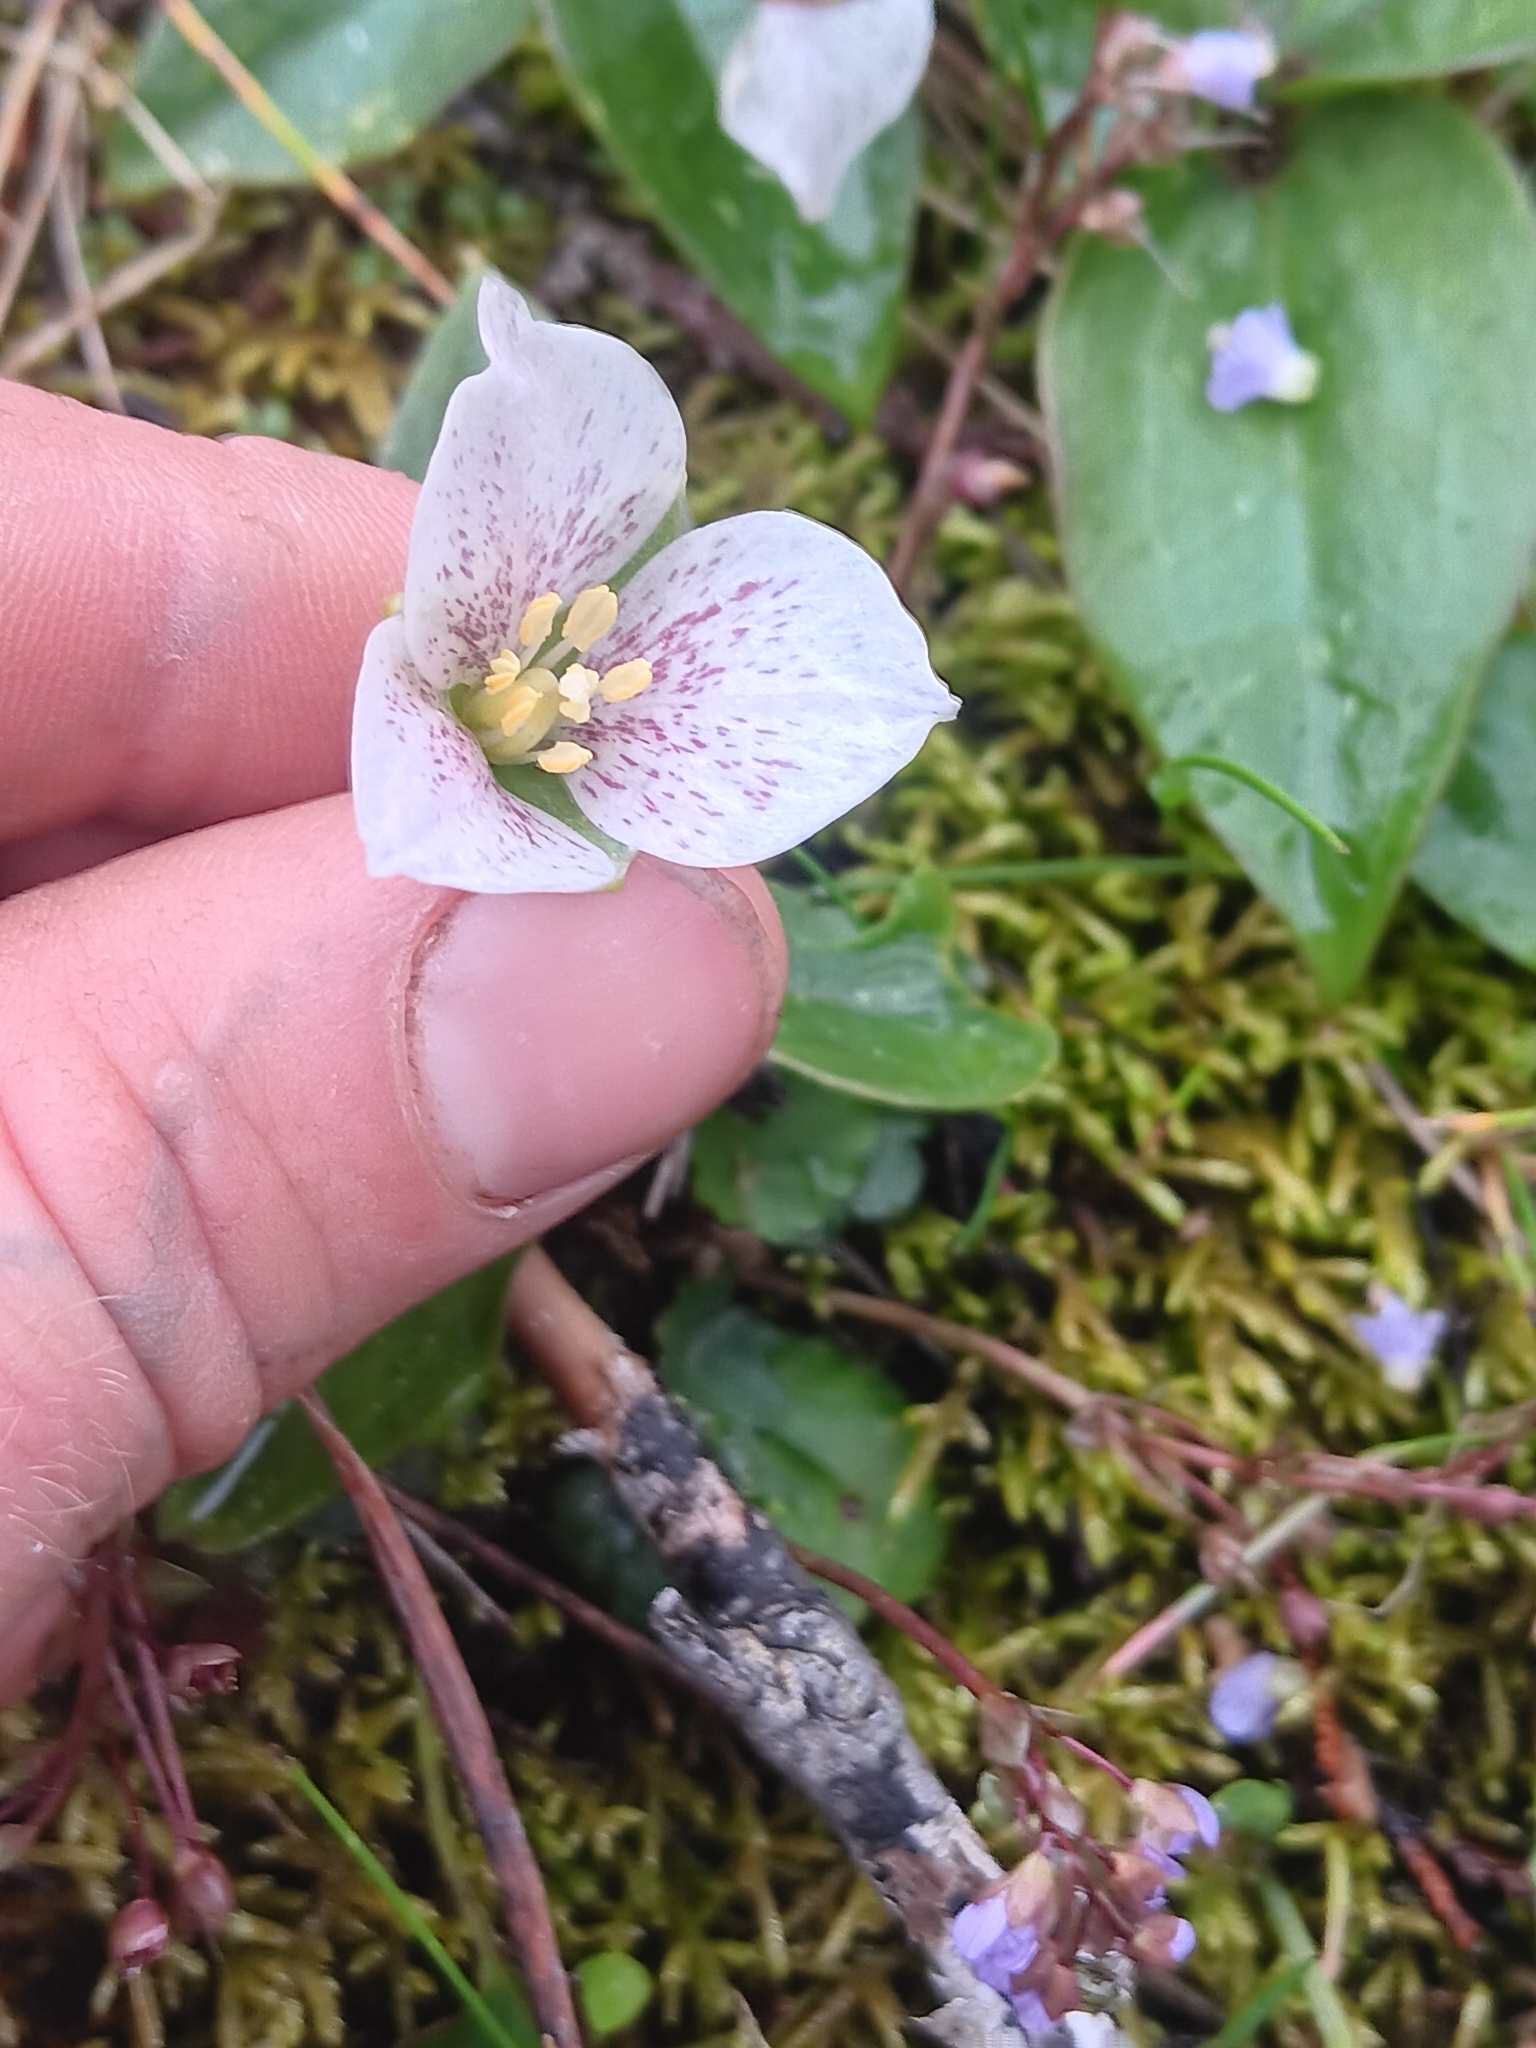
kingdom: Plantae
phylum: Tracheophyta
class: Liliopsida
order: Liliales
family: Melanthiaceae
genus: Pseudotrillium
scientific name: Pseudotrillium rivale
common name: Brook wakerobin
